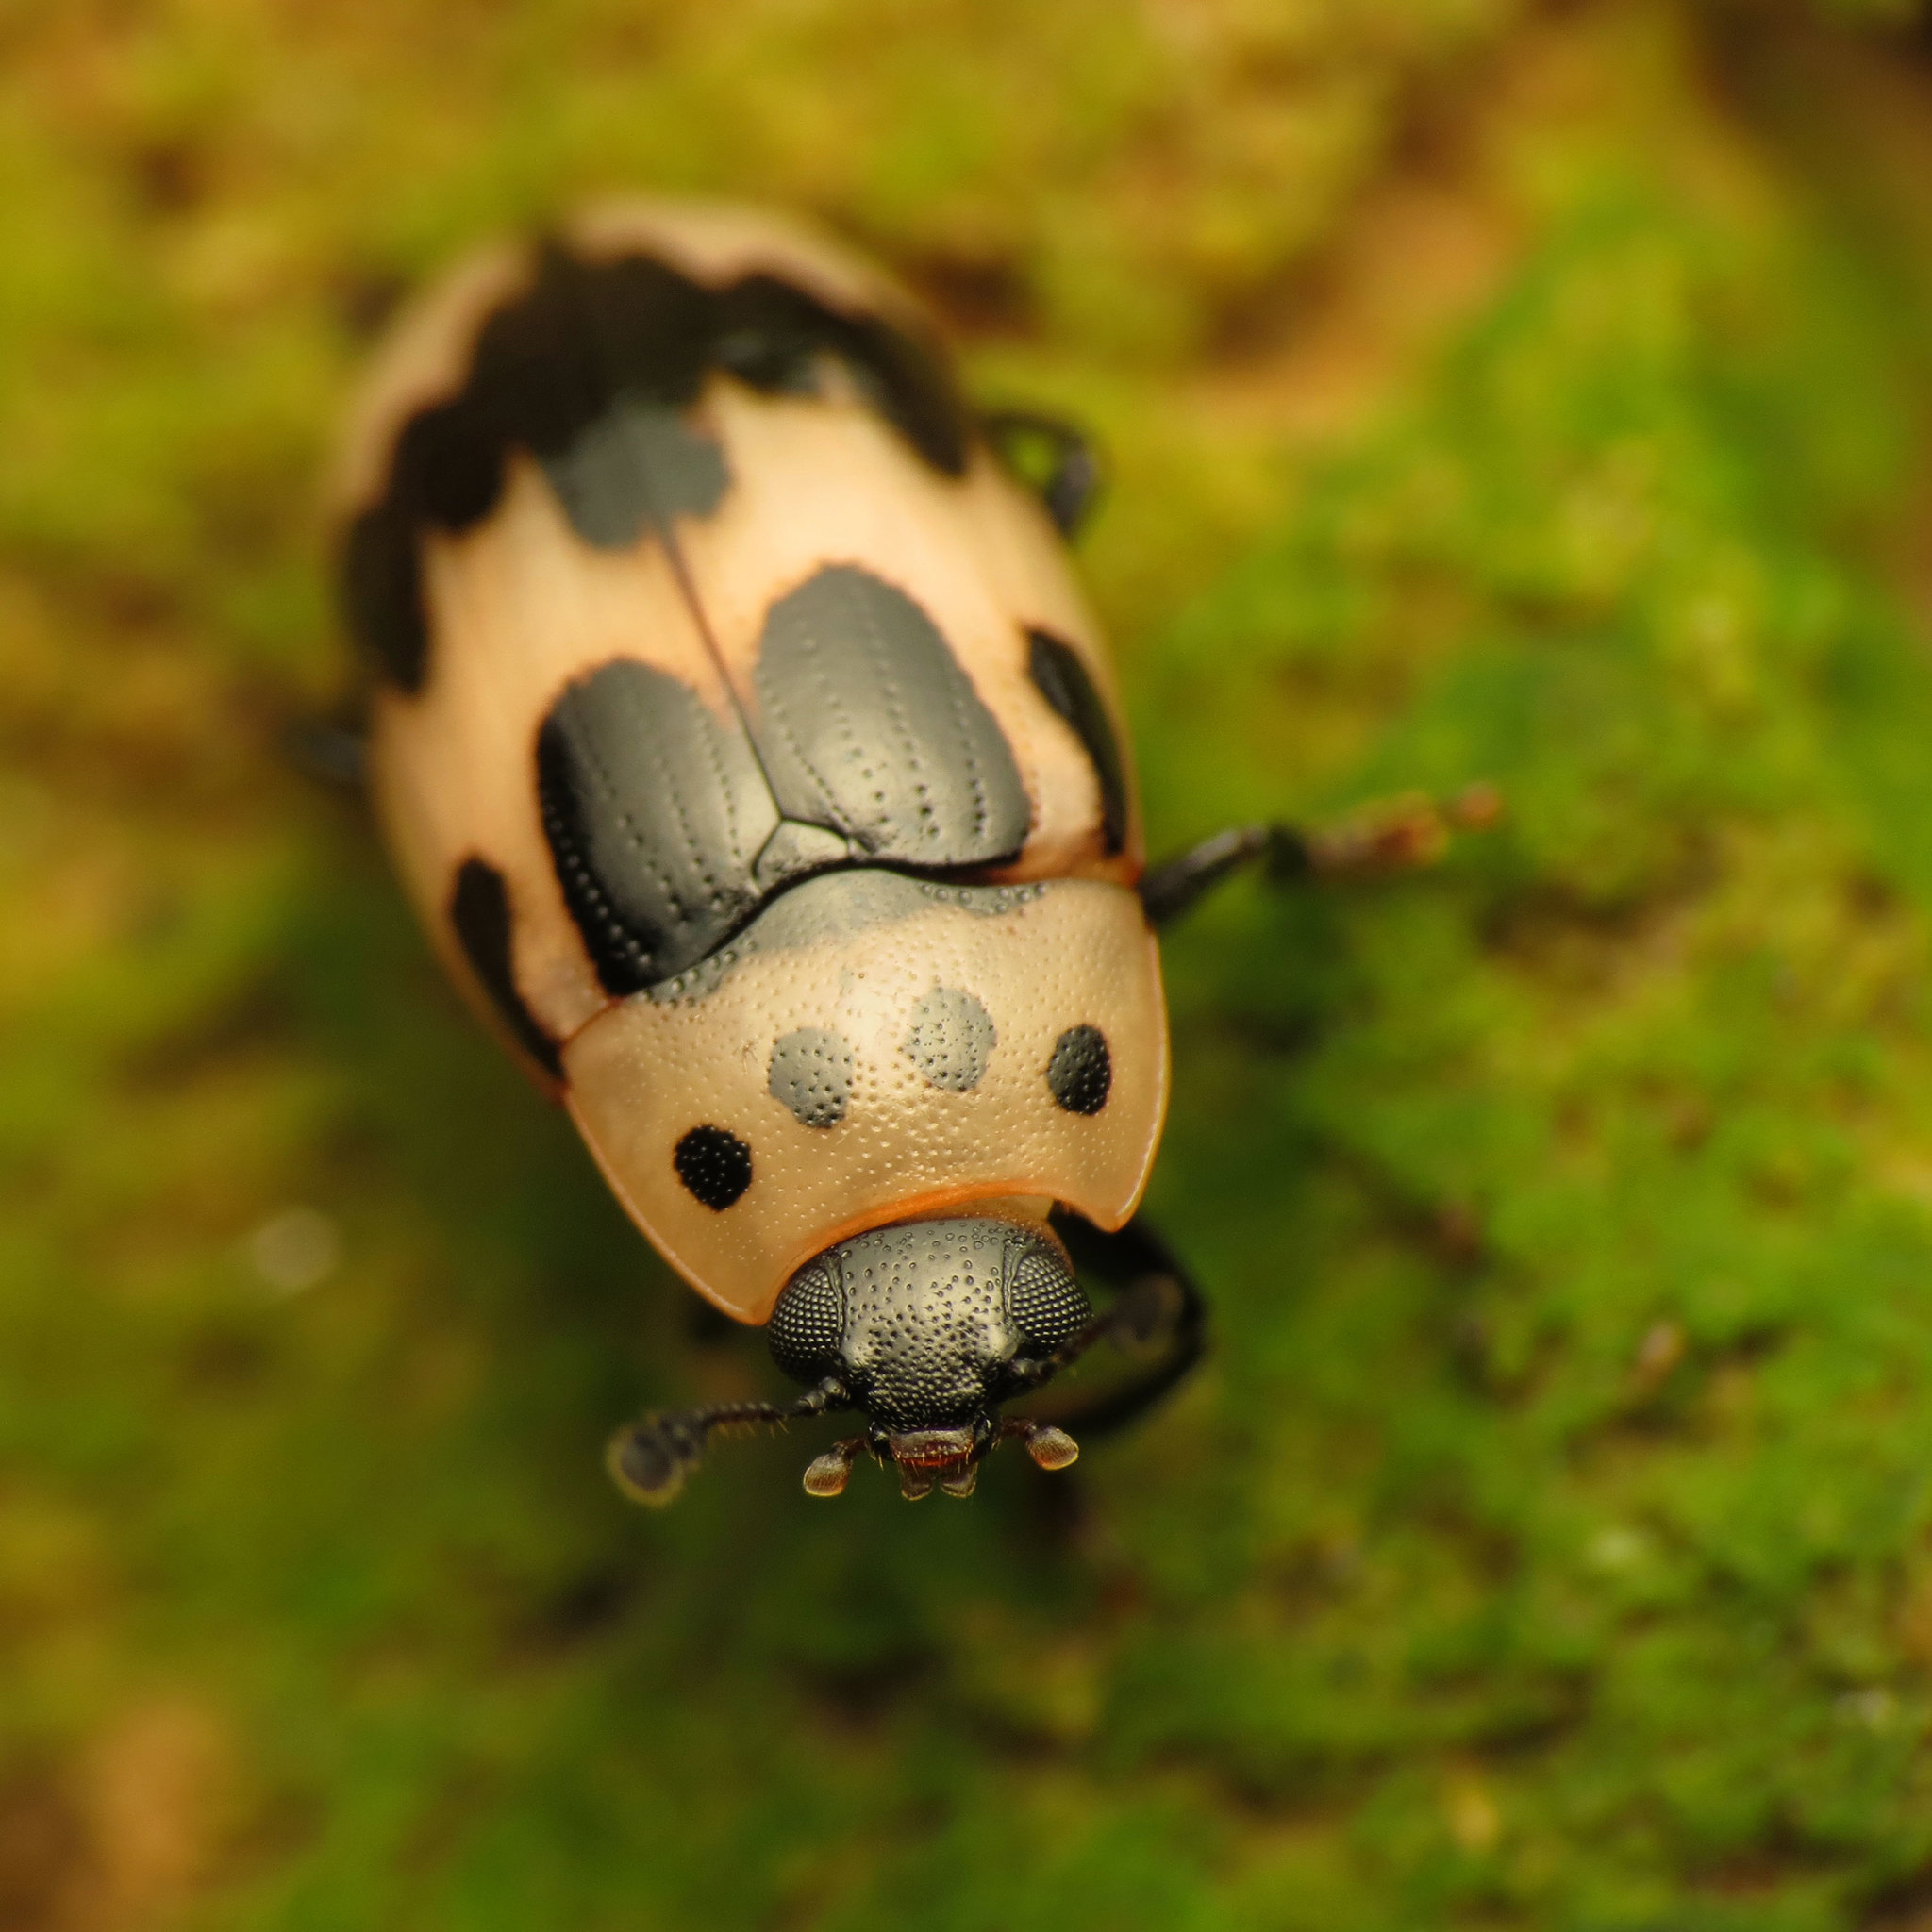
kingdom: Animalia
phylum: Arthropoda
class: Insecta
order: Coleoptera
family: Erotylidae
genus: Ischyrus
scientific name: Ischyrus quadripunctatus
